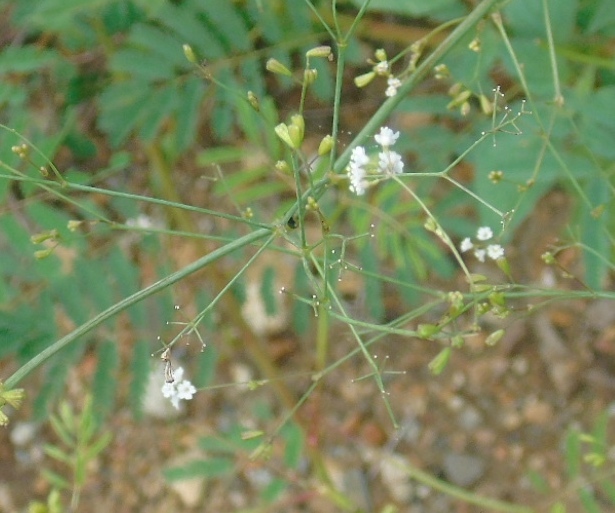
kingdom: Plantae
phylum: Tracheophyta
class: Magnoliopsida
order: Caryophyllales
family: Nyctaginaceae
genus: Boerhavia
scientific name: Boerhavia erecta
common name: Erect spiderling
